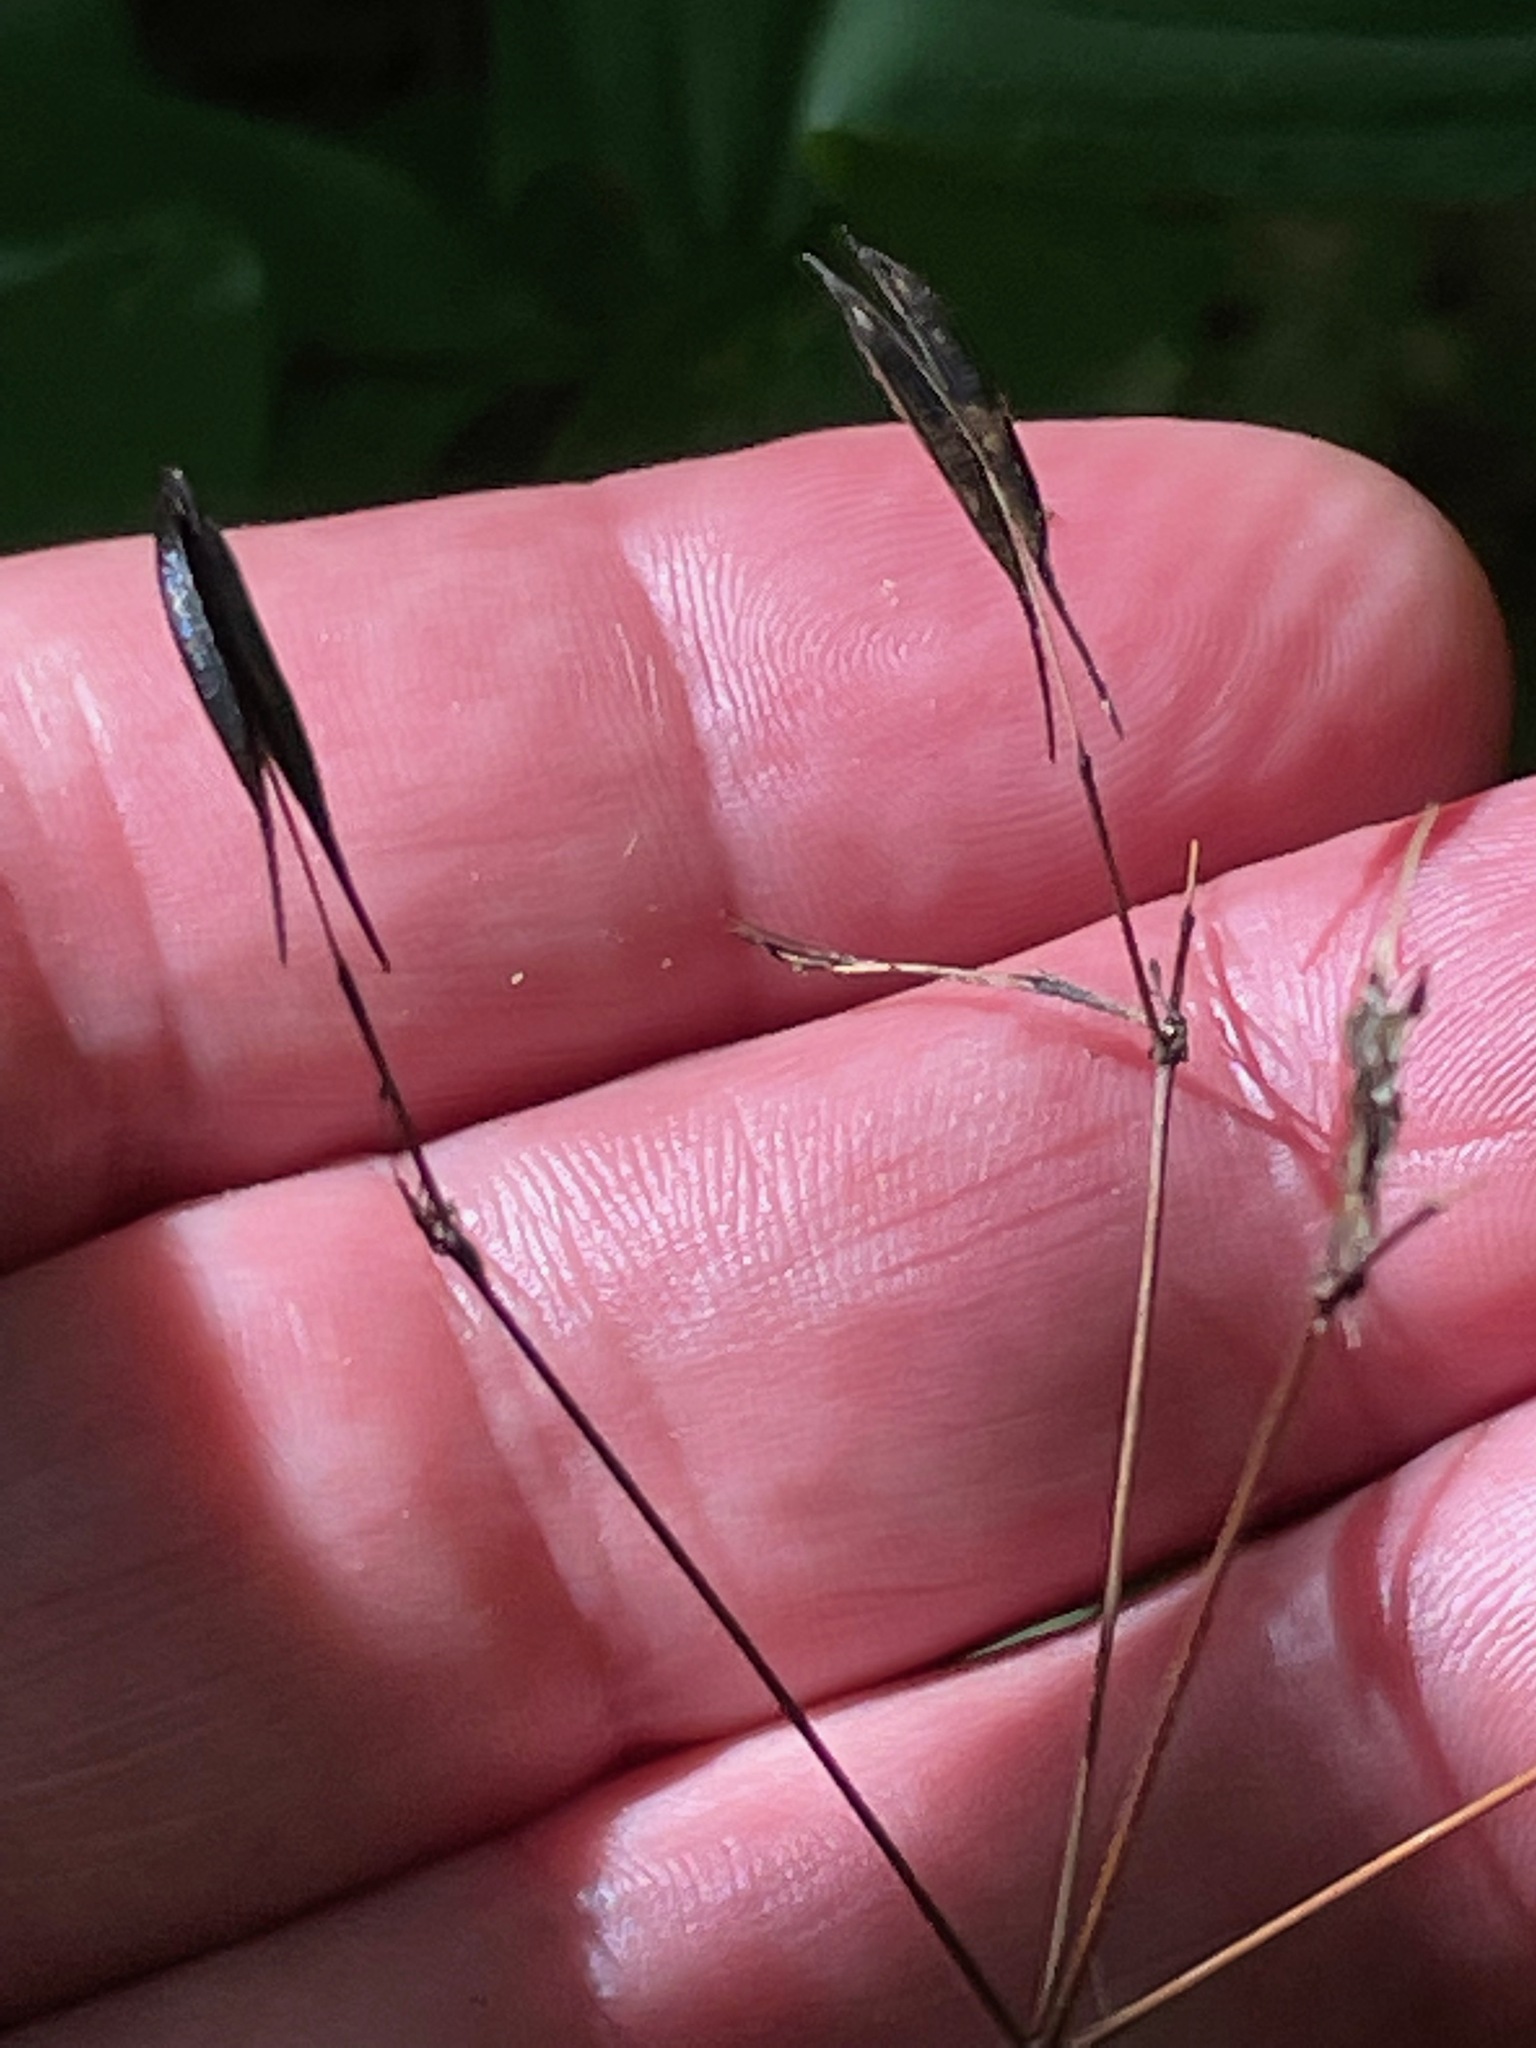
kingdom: Plantae
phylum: Tracheophyta
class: Magnoliopsida
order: Apiales
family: Apiaceae
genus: Osmorhiza
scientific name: Osmorhiza claytonii
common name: Hairy sweet cicely
